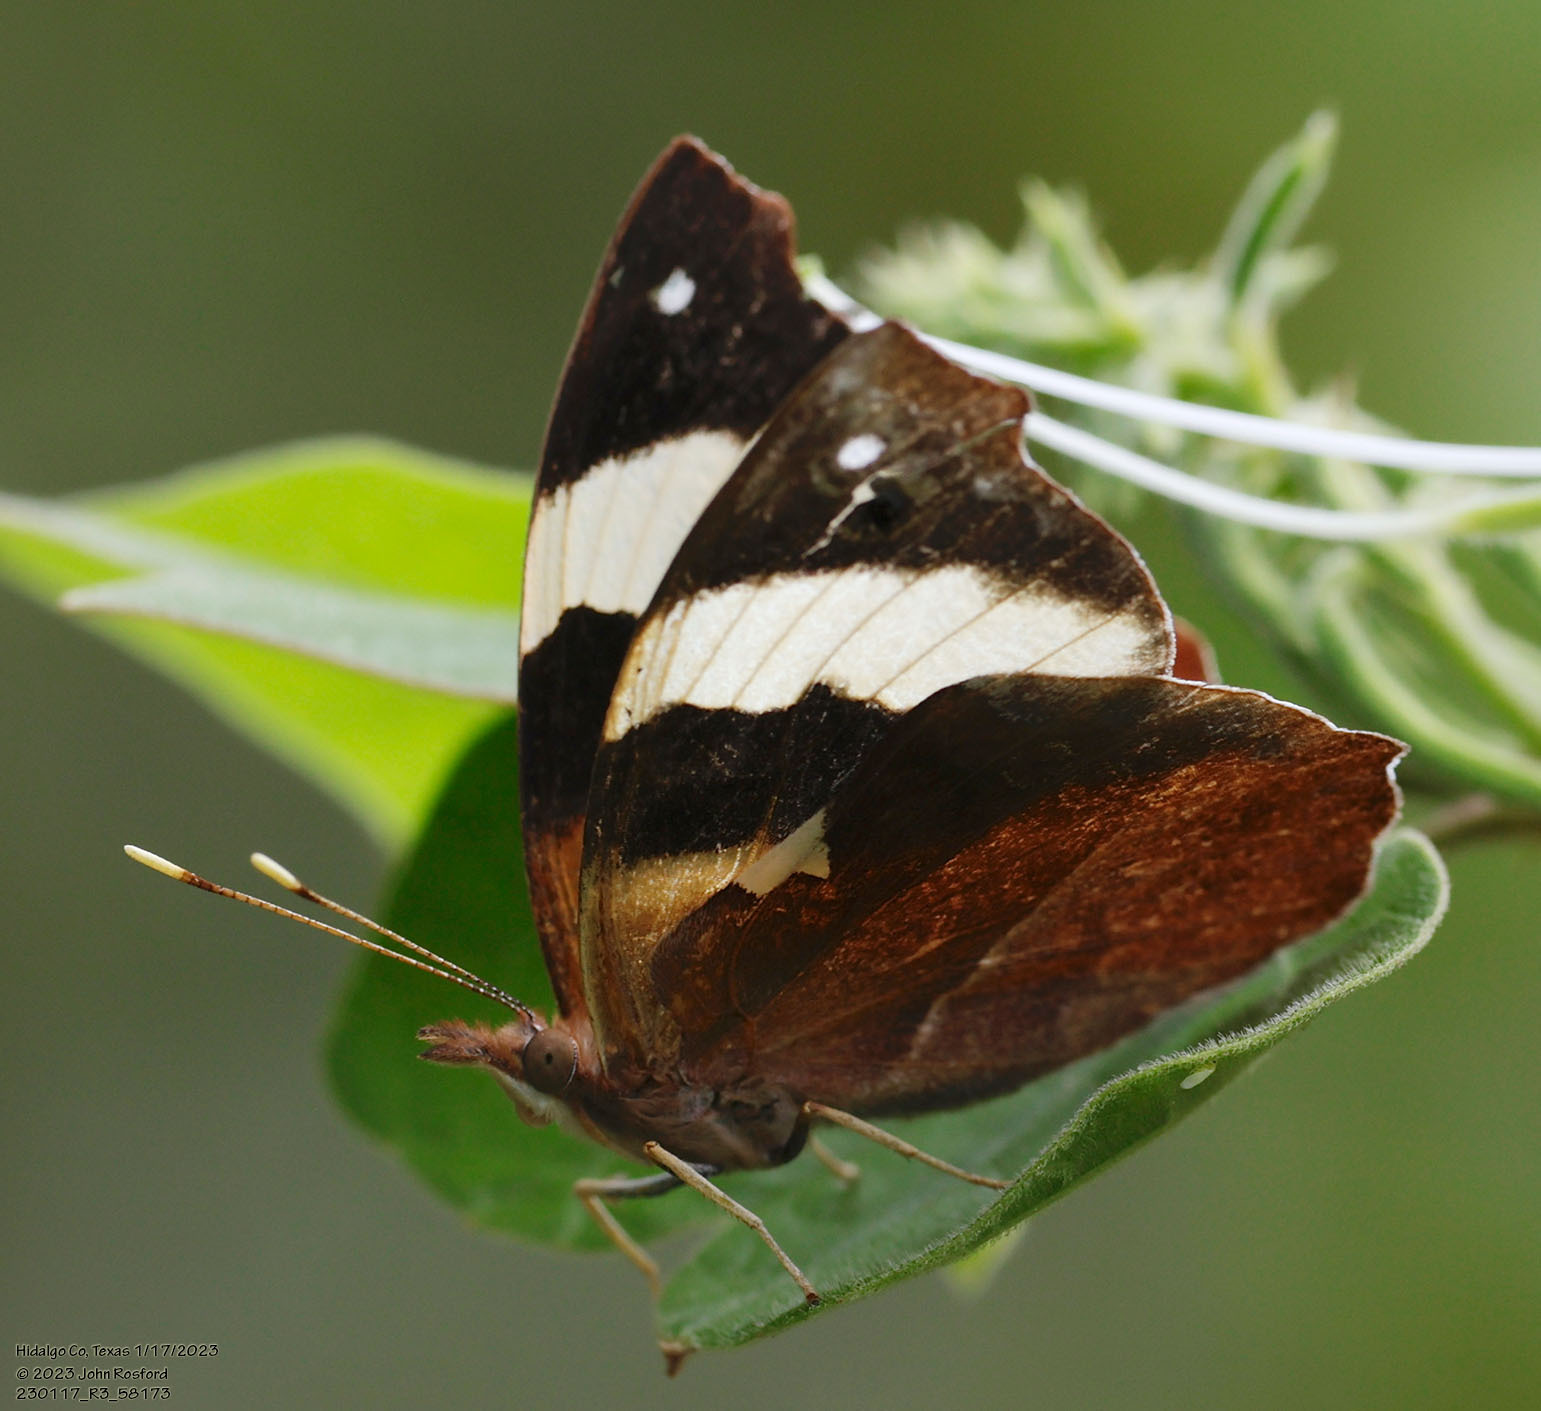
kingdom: Animalia
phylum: Arthropoda
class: Insecta
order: Lepidoptera
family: Nymphalidae
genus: Epiphile
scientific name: Epiphile adrasta
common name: Common banner
